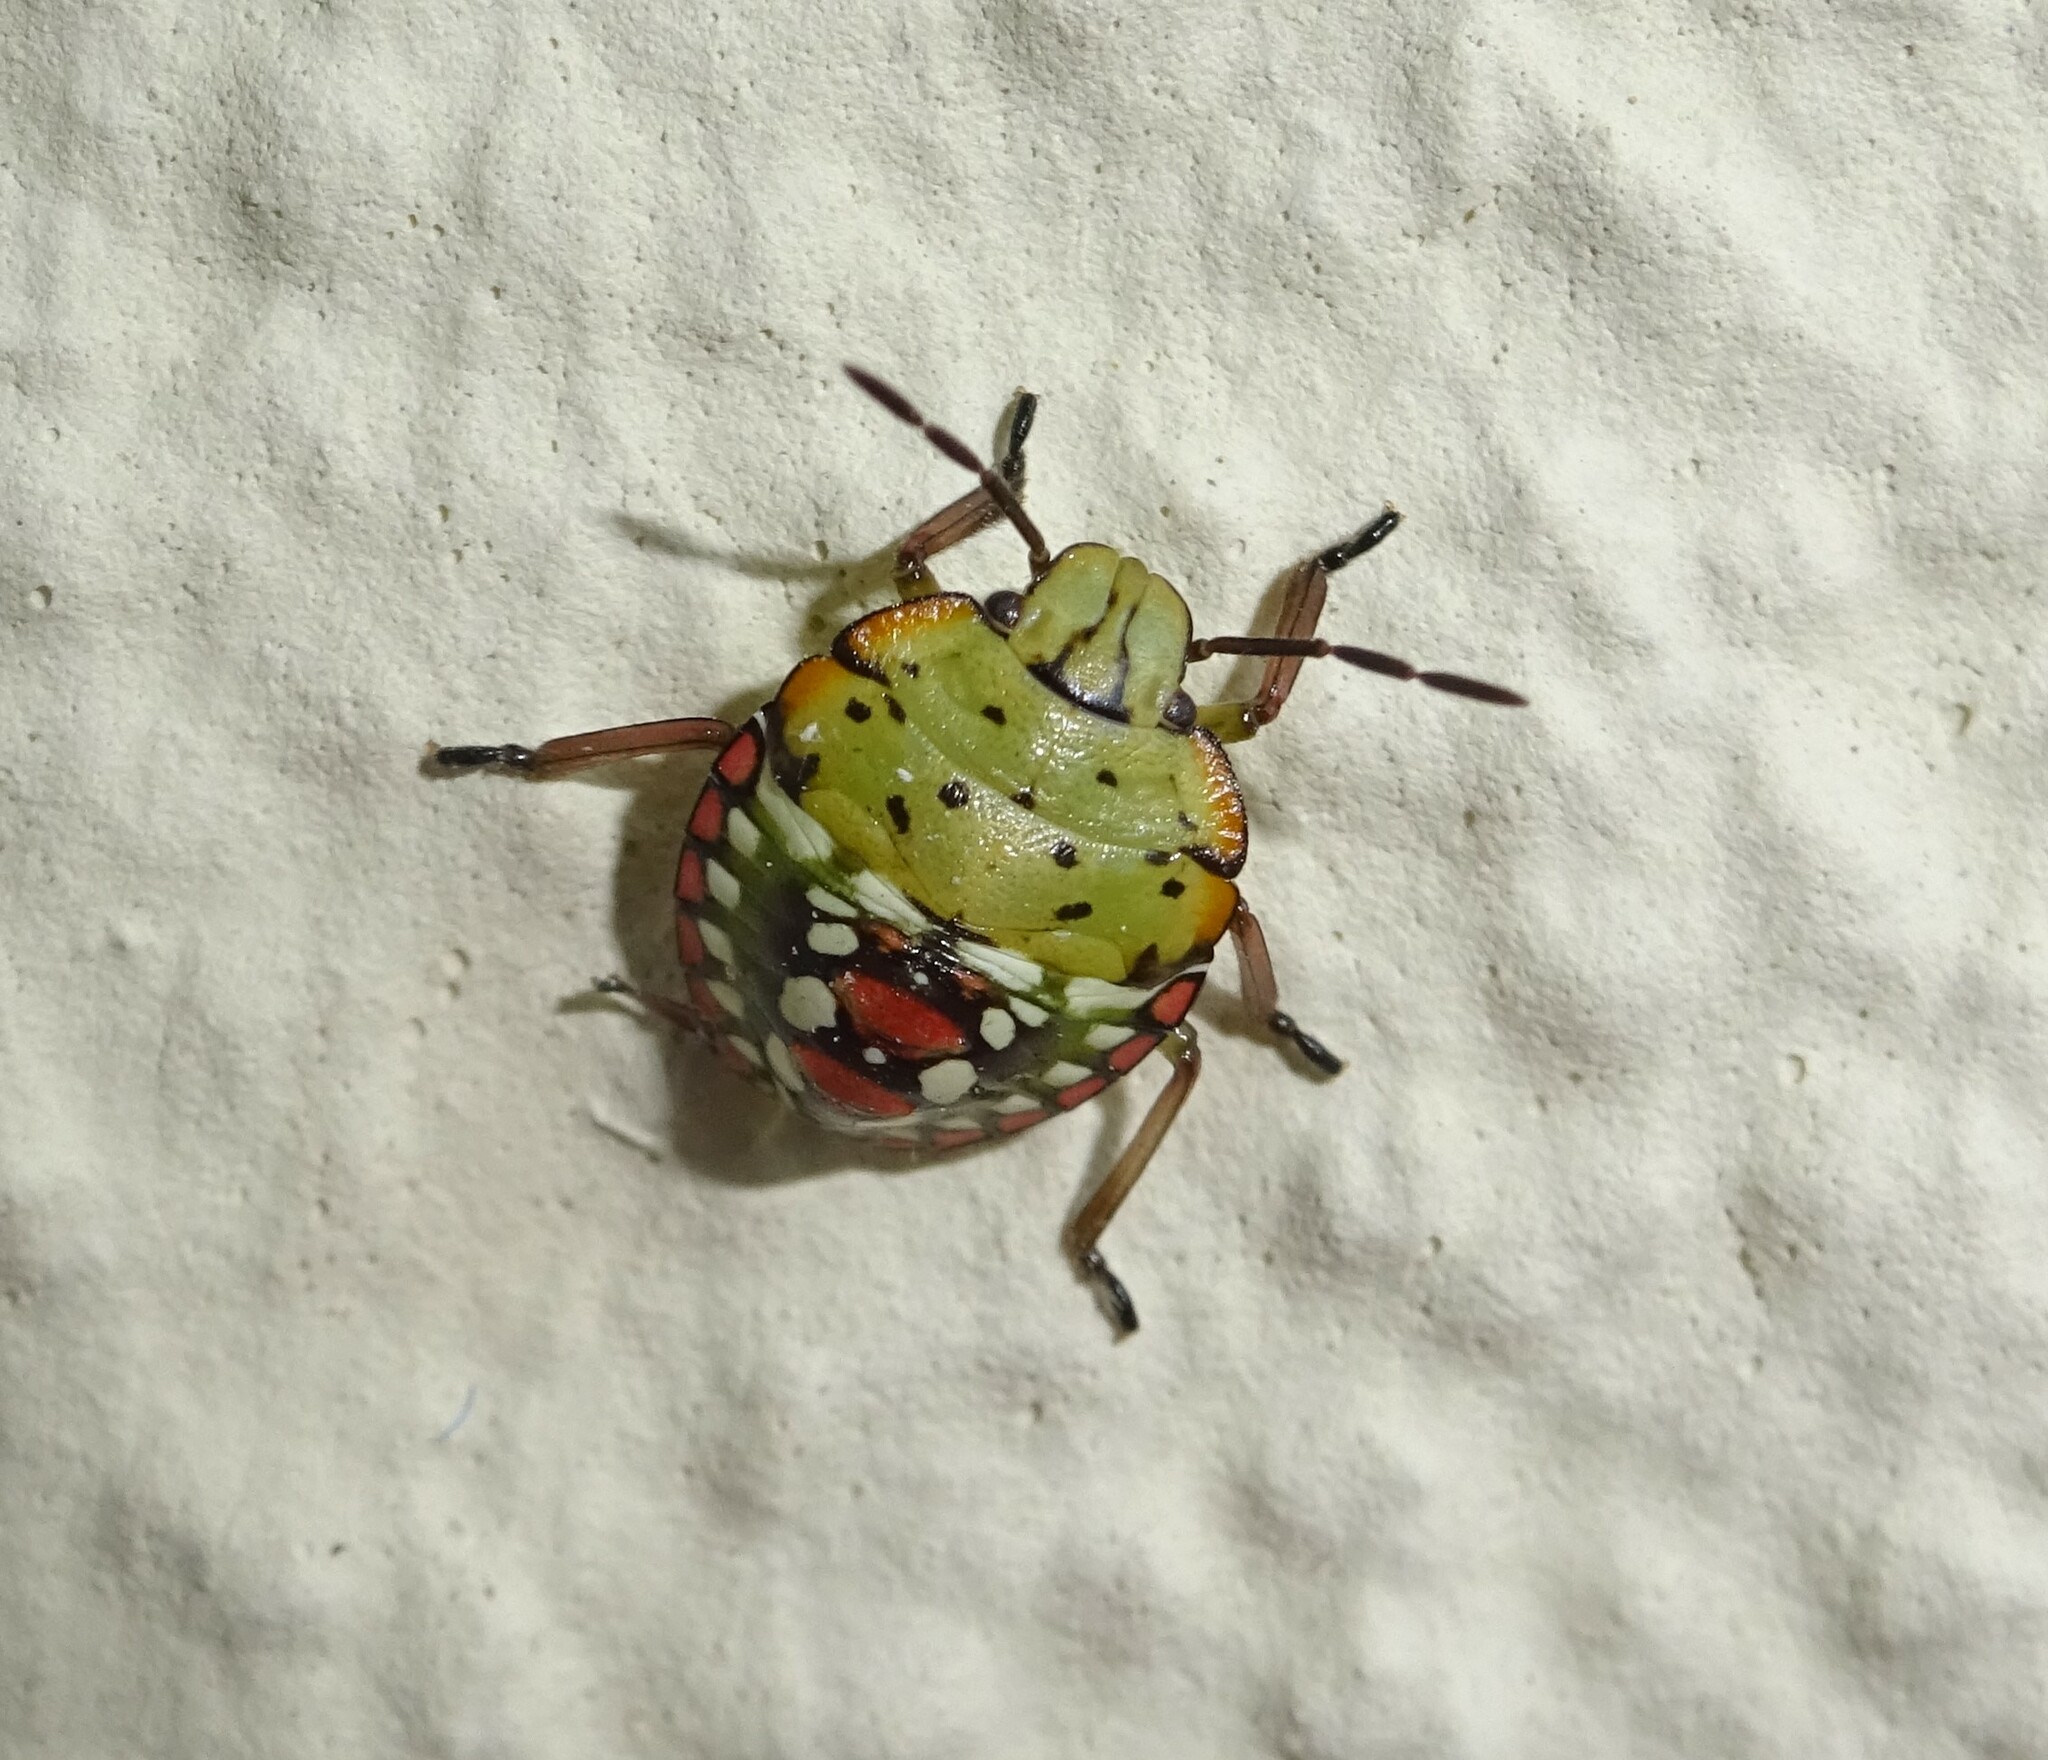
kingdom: Animalia
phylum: Arthropoda
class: Insecta
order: Hemiptera
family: Pentatomidae
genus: Nezara
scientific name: Nezara viridula
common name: Southern green stink bug
